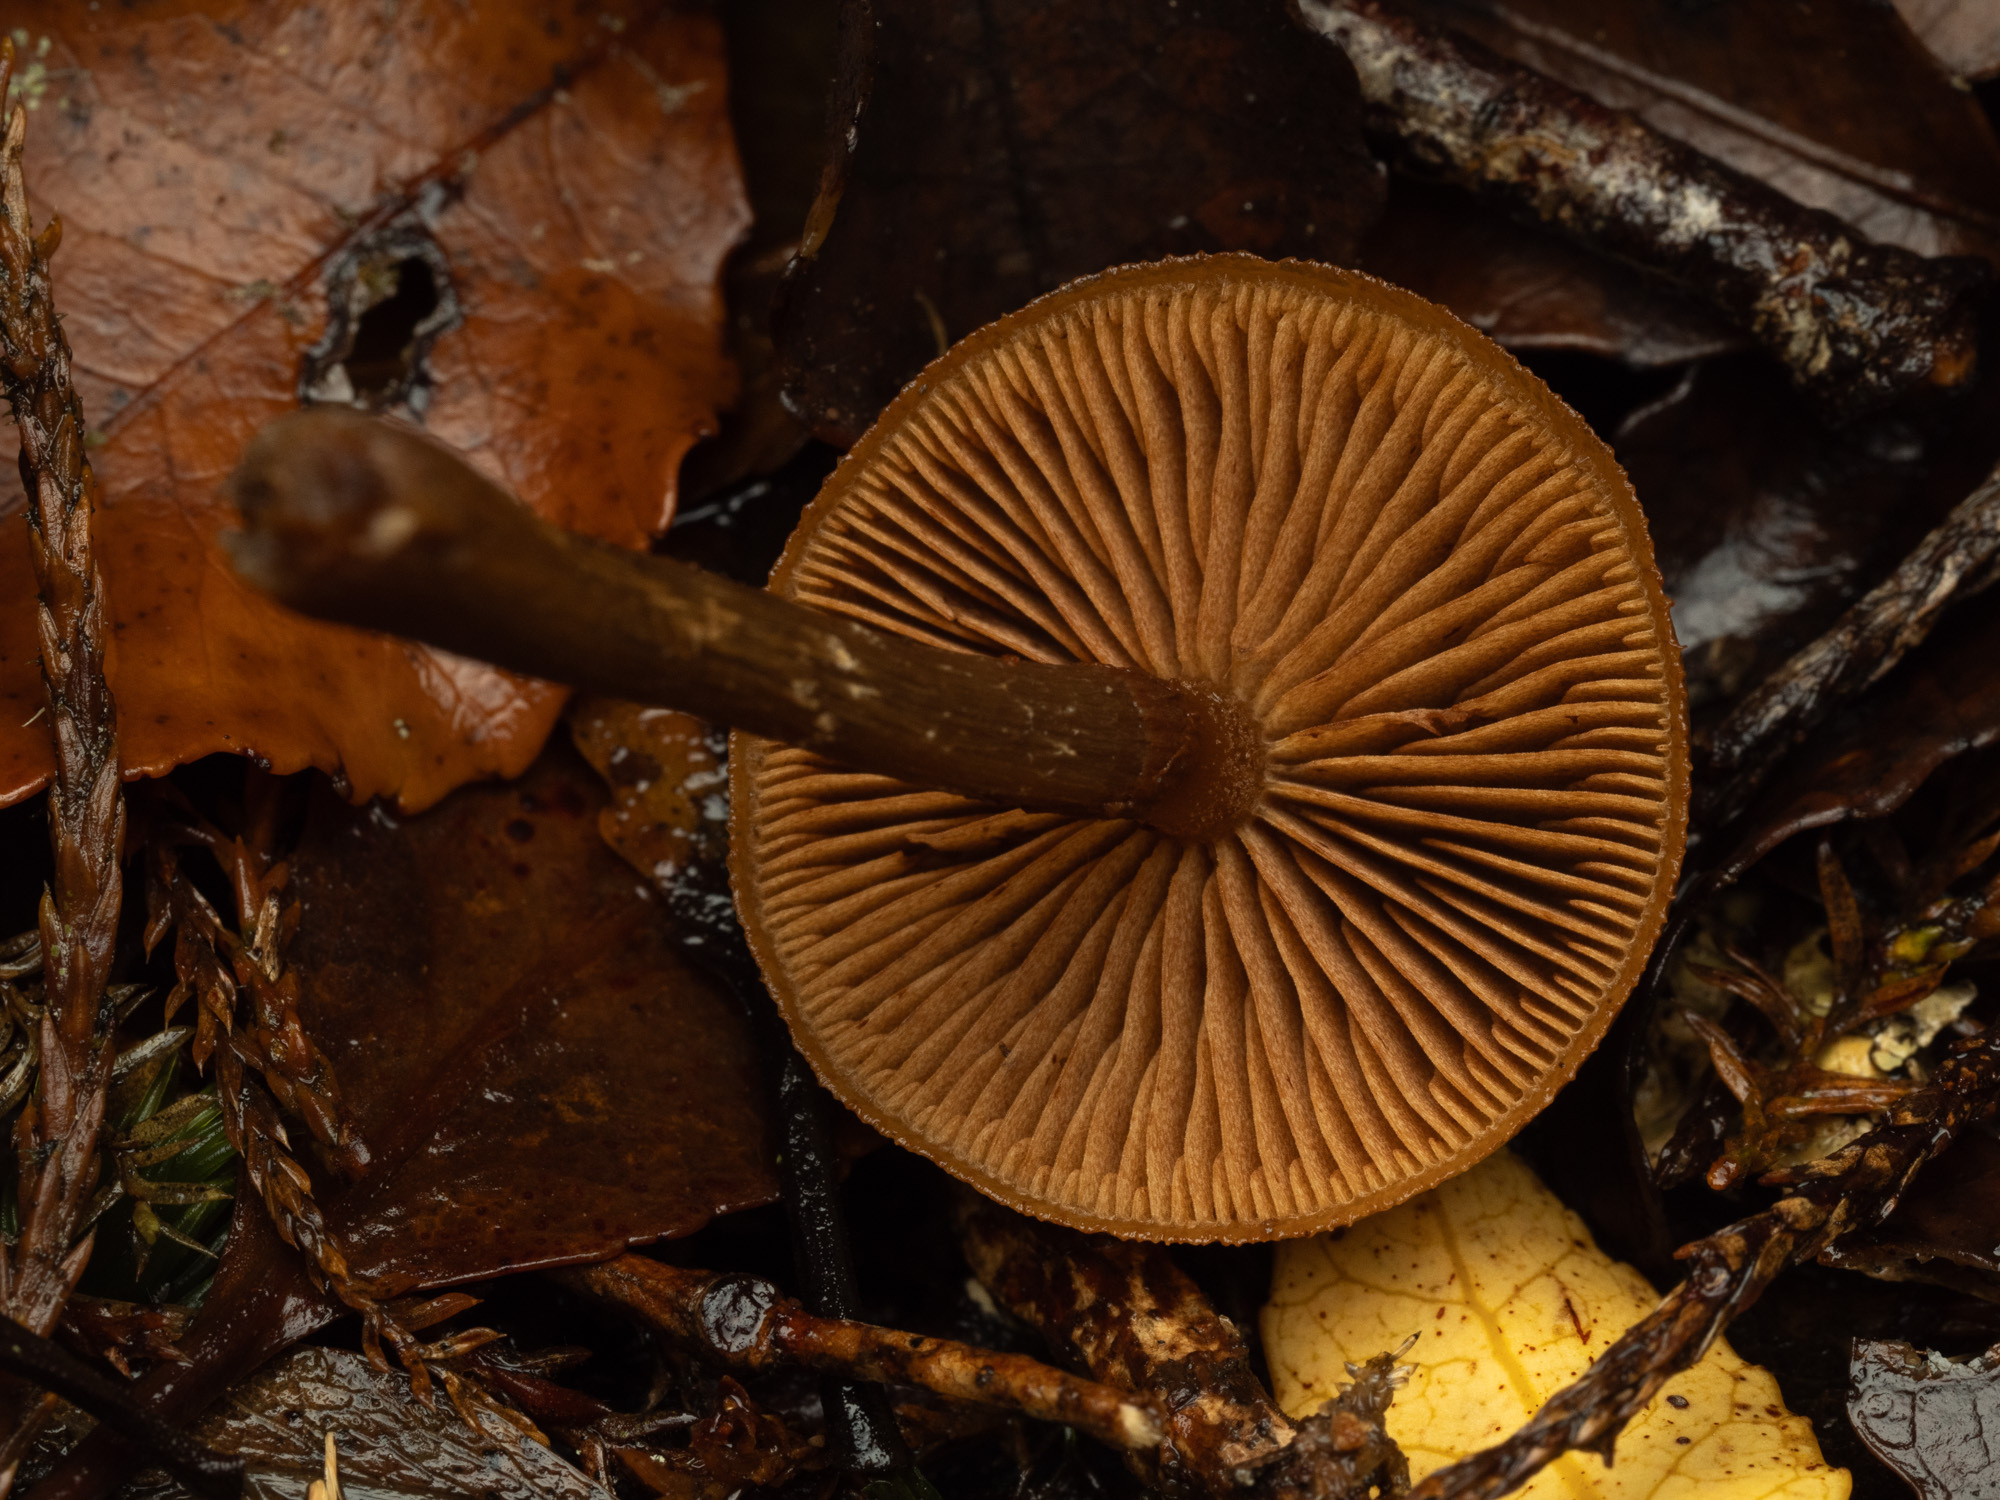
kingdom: Fungi
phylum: Basidiomycota
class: Agaricomycetes
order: Agaricales
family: Hymenogastraceae
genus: Galerina
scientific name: Galerina patagonica
